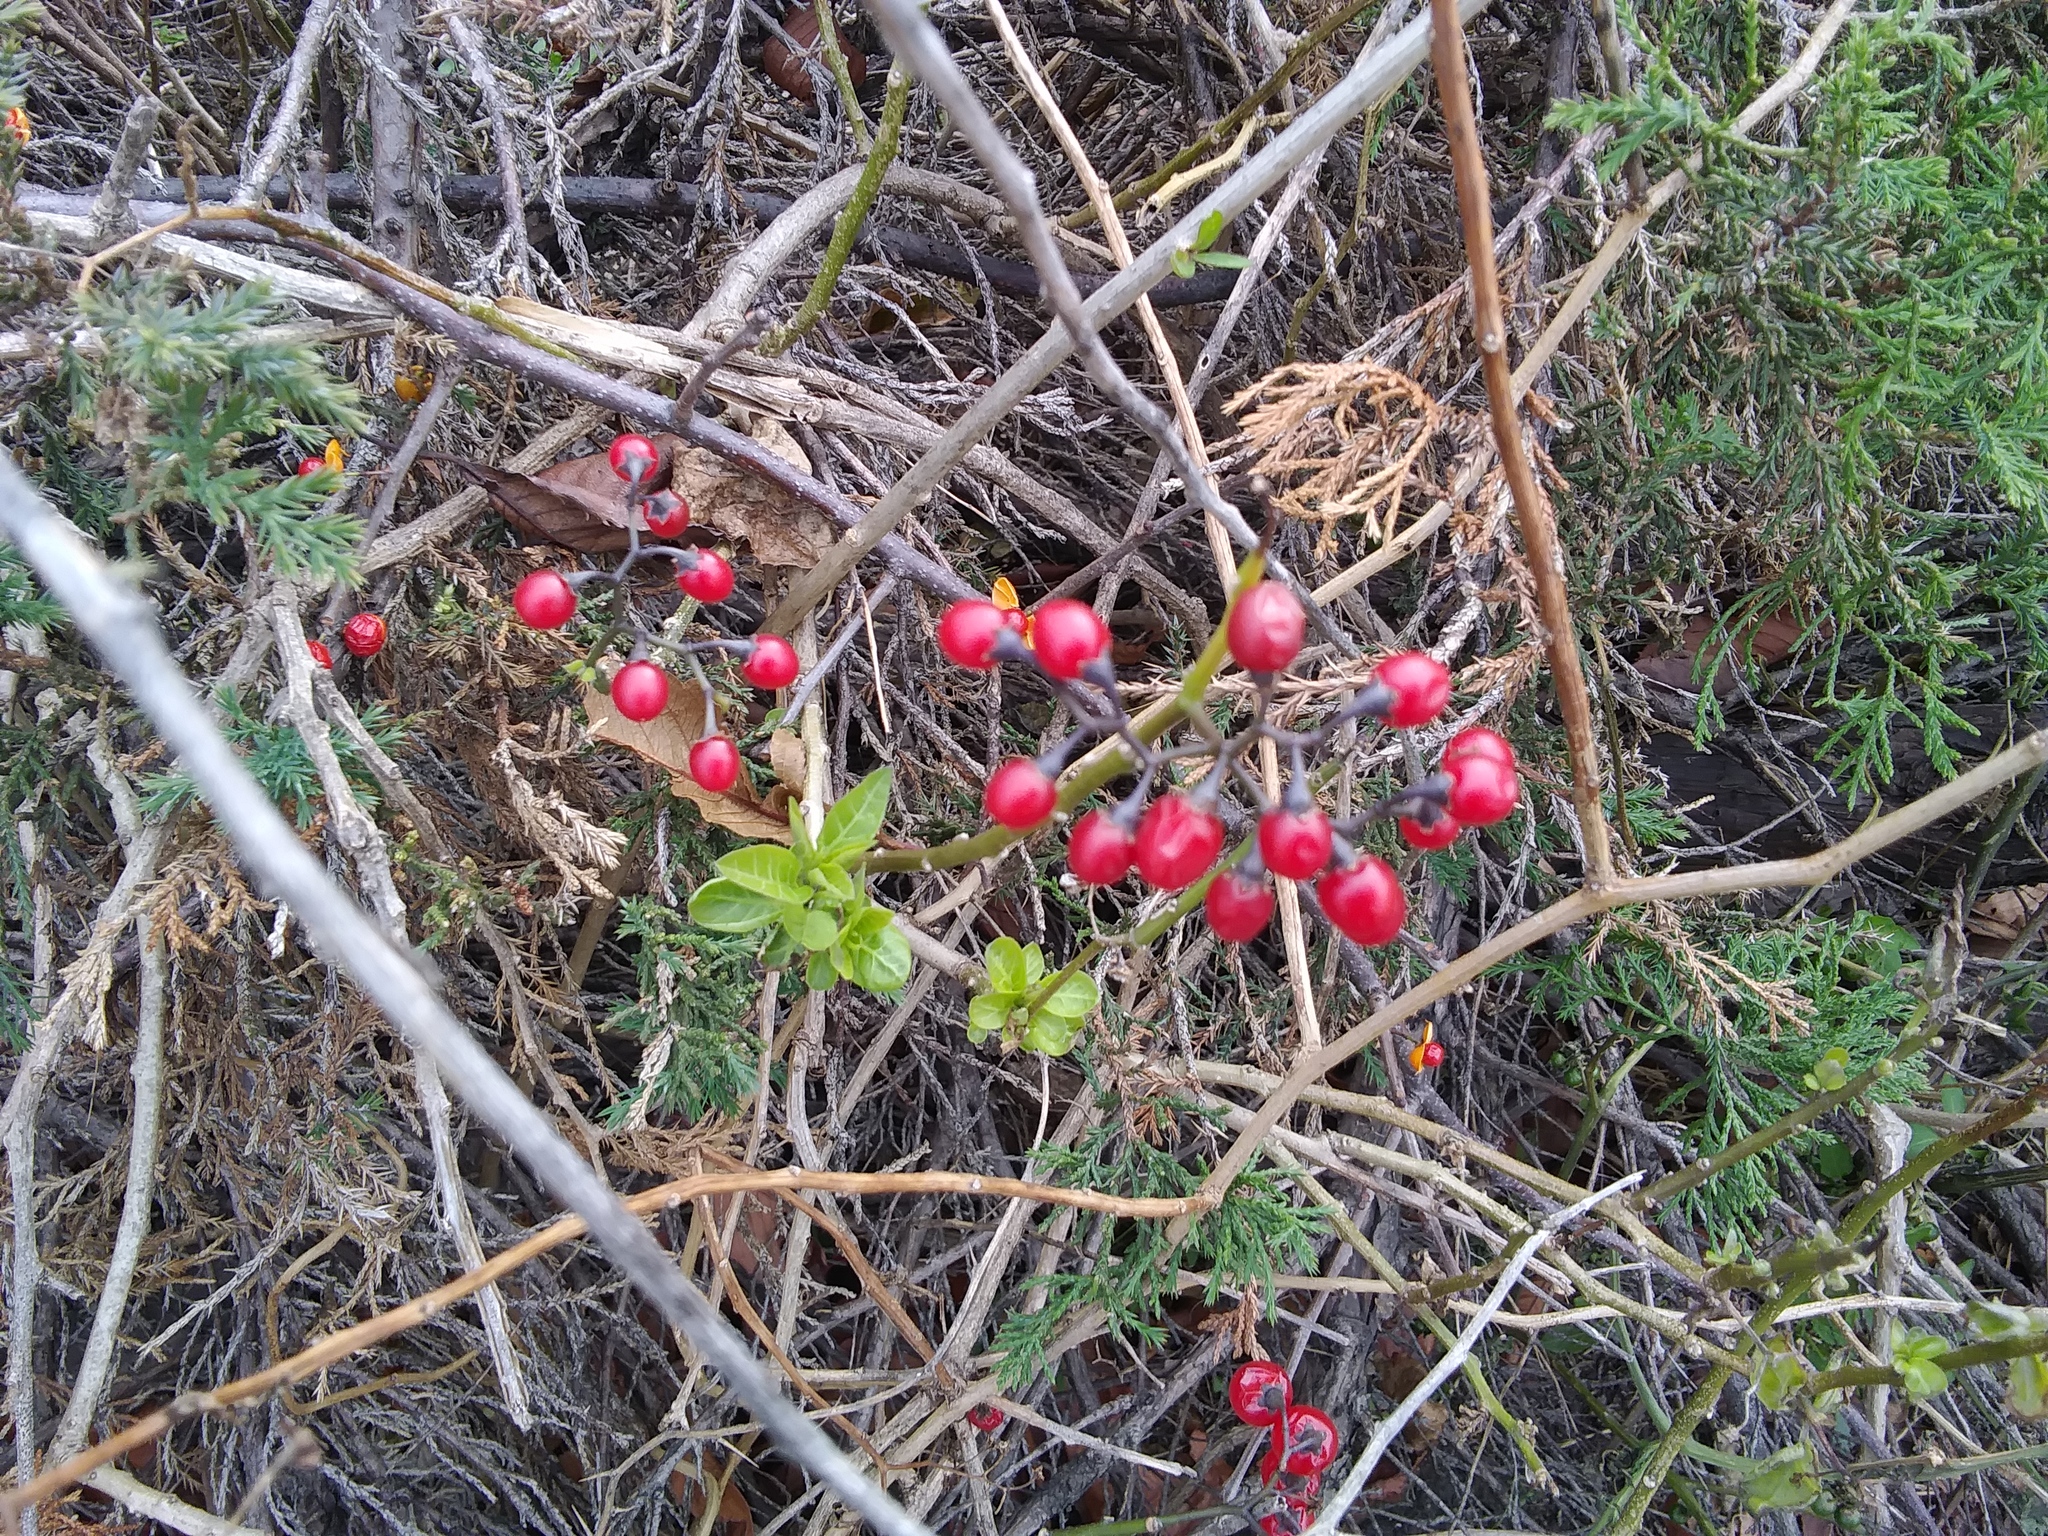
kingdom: Plantae
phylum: Tracheophyta
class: Magnoliopsida
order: Solanales
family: Solanaceae
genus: Solanum
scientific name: Solanum dulcamara
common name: Climbing nightshade
